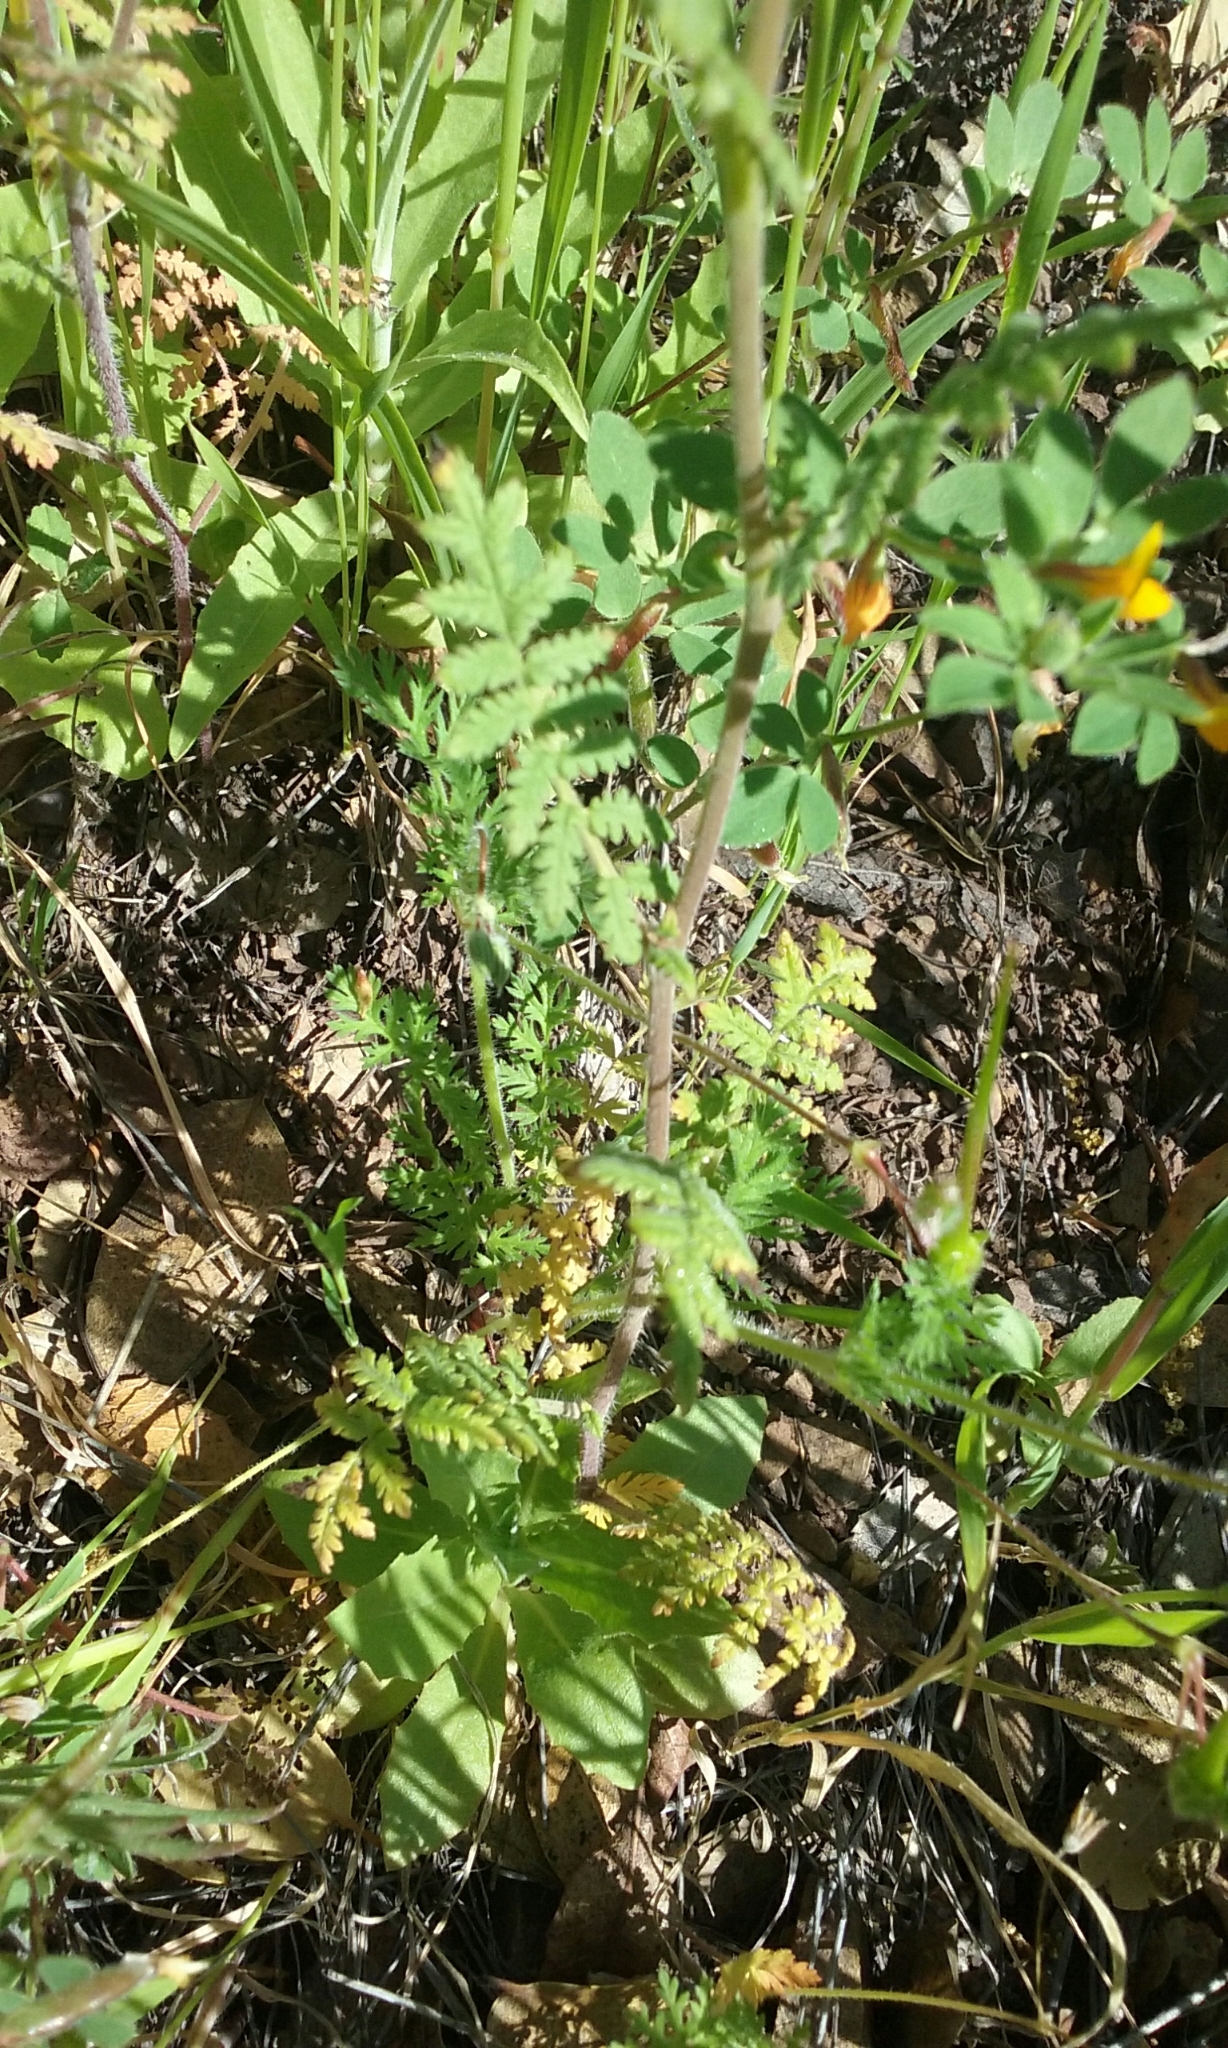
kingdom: Plantae
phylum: Tracheophyta
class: Magnoliopsida
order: Boraginales
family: Hydrophyllaceae
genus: Phacelia
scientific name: Phacelia distans
